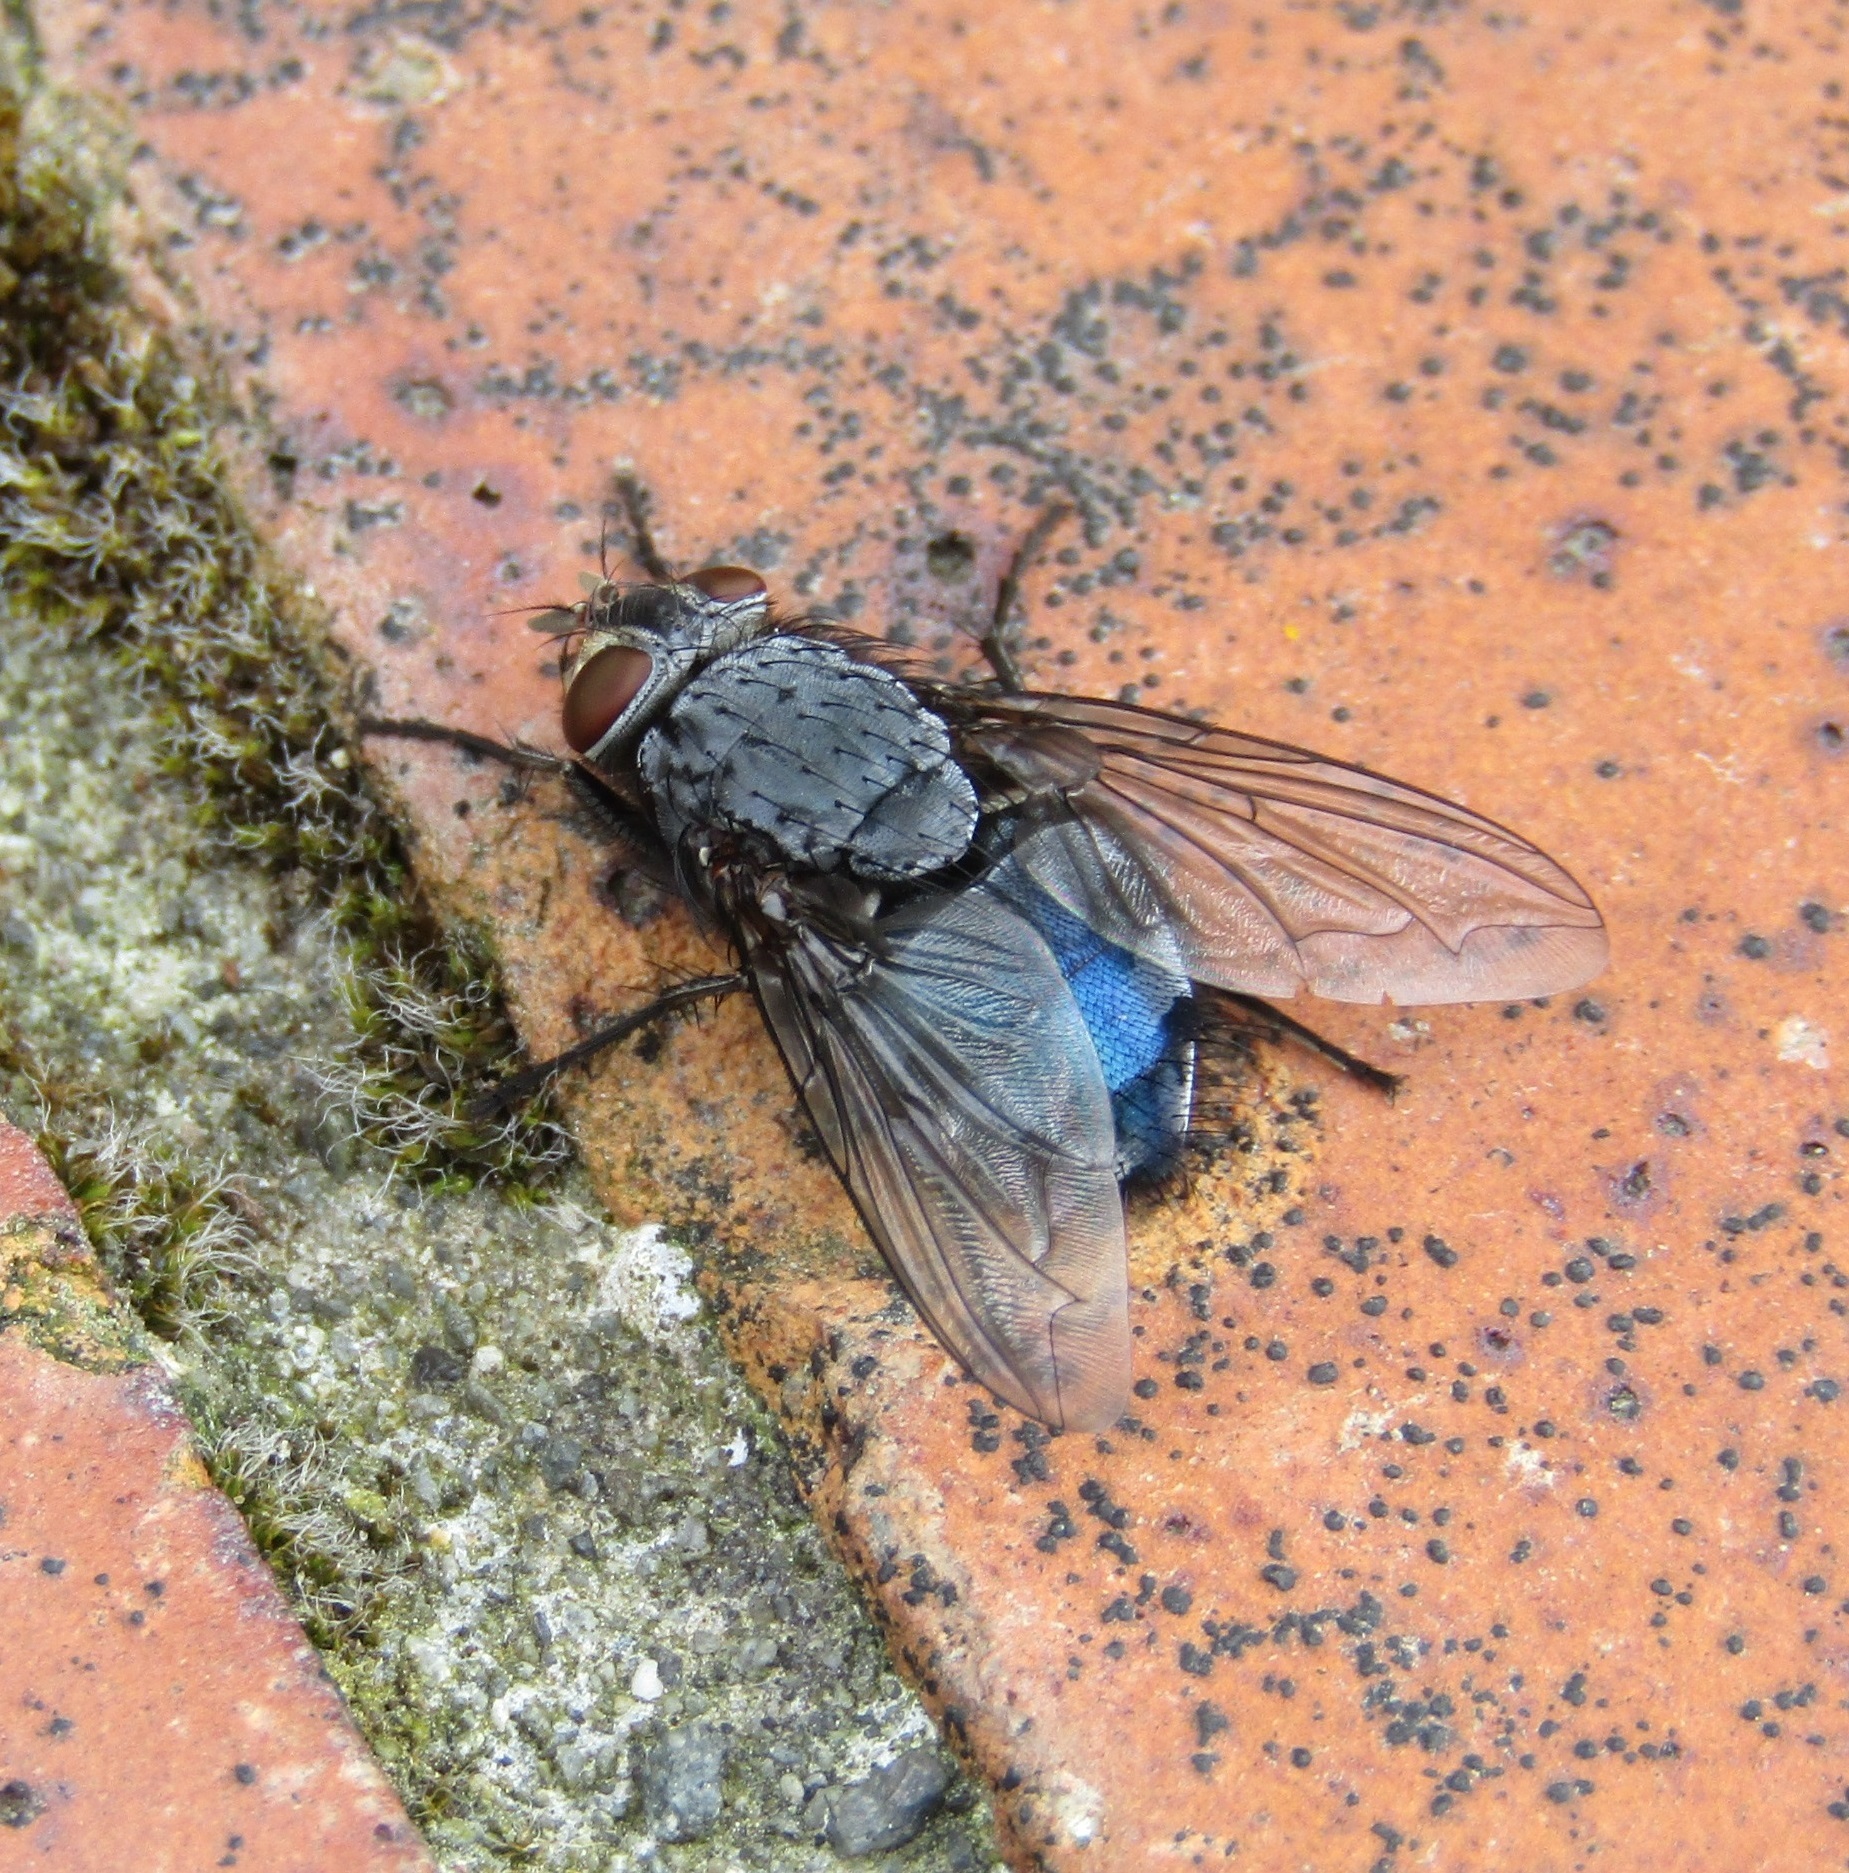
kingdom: Animalia
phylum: Arthropoda
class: Insecta
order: Diptera
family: Calliphoridae
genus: Calliphora
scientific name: Calliphora vicina
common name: Common blow flie
